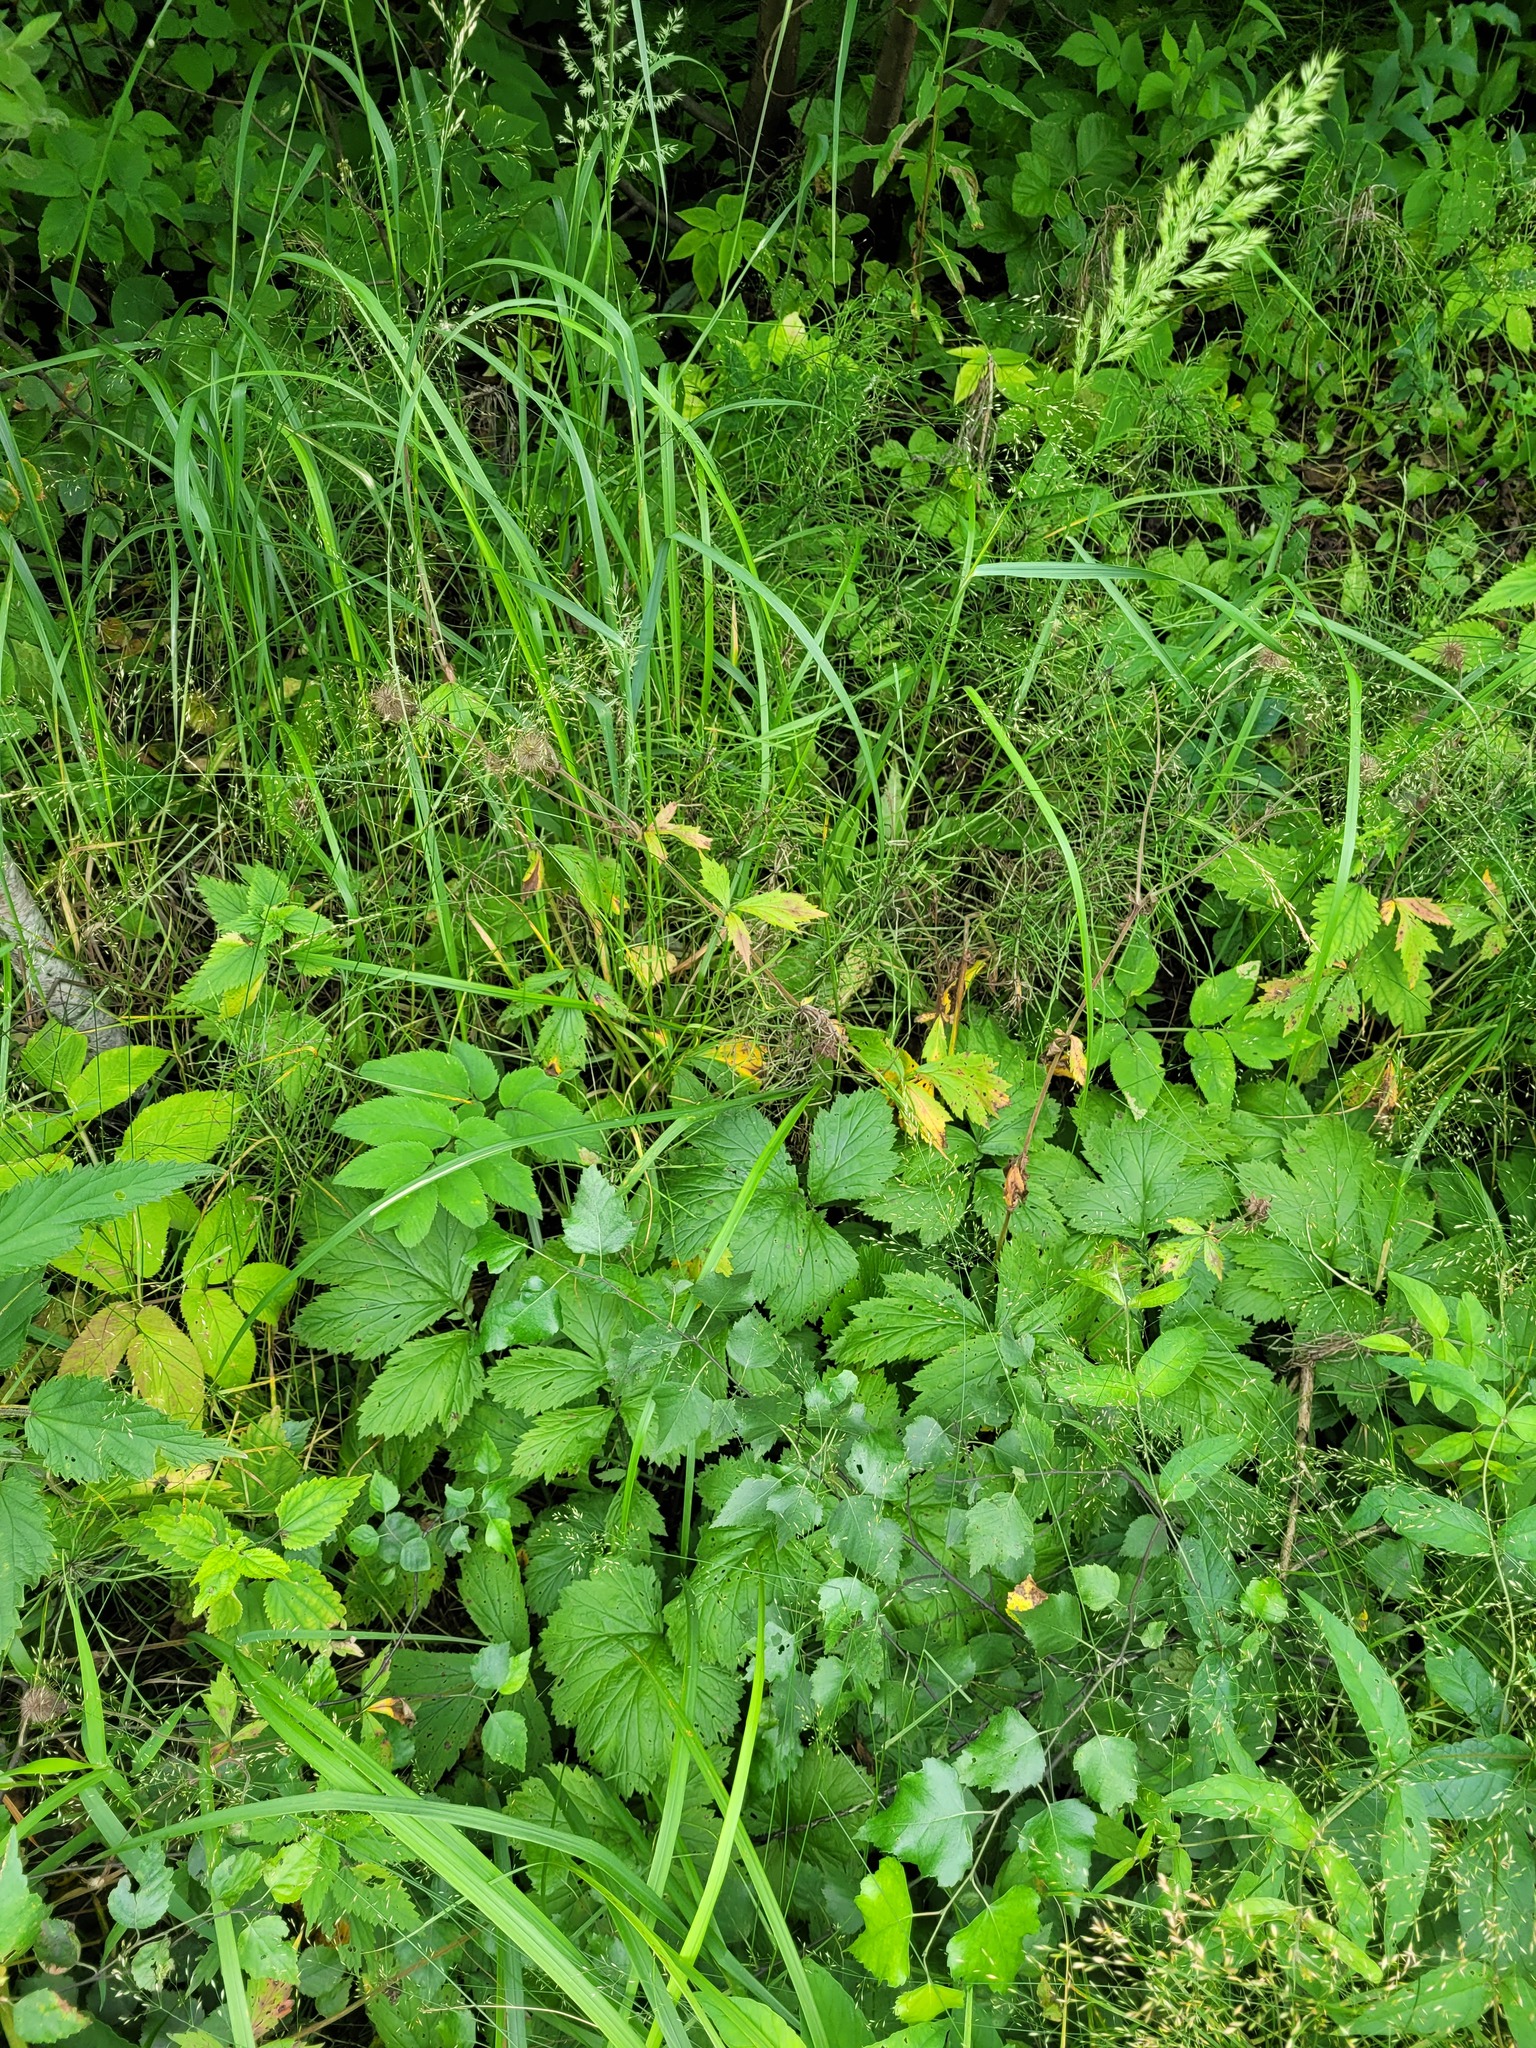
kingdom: Plantae
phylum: Tracheophyta
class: Magnoliopsida
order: Rosales
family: Rosaceae
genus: Geum
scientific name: Geum rivale
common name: Water avens
